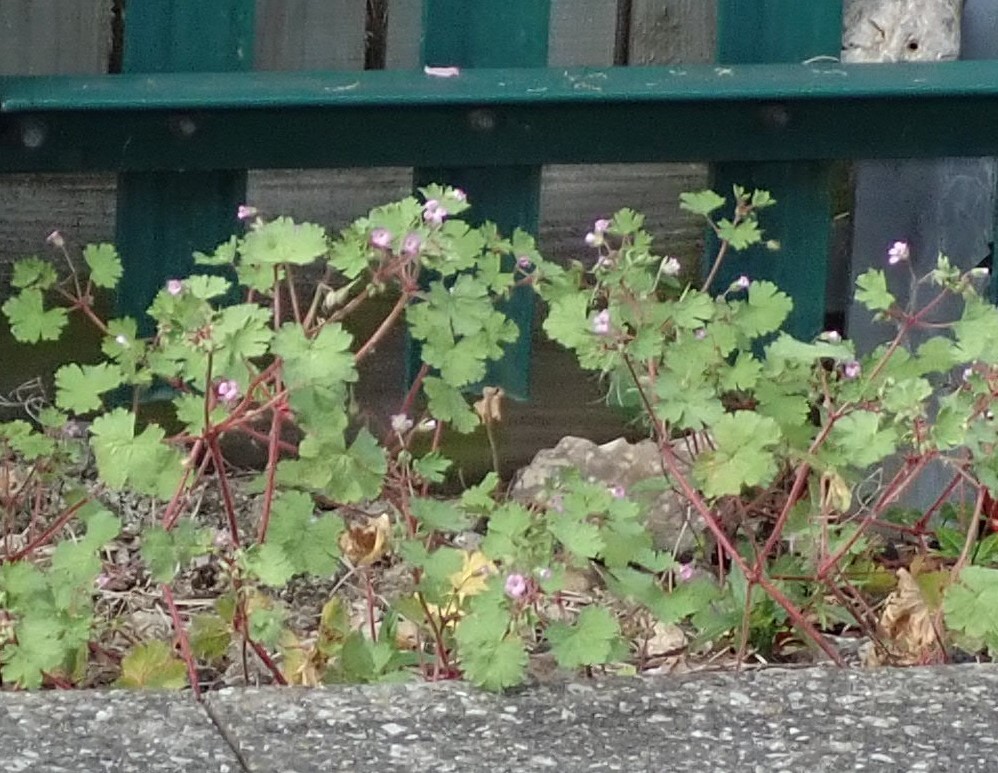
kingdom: Plantae
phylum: Tracheophyta
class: Magnoliopsida
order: Geraniales
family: Geraniaceae
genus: Geranium
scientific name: Geranium rotundifolium
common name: Round-leaved crane's-bill
